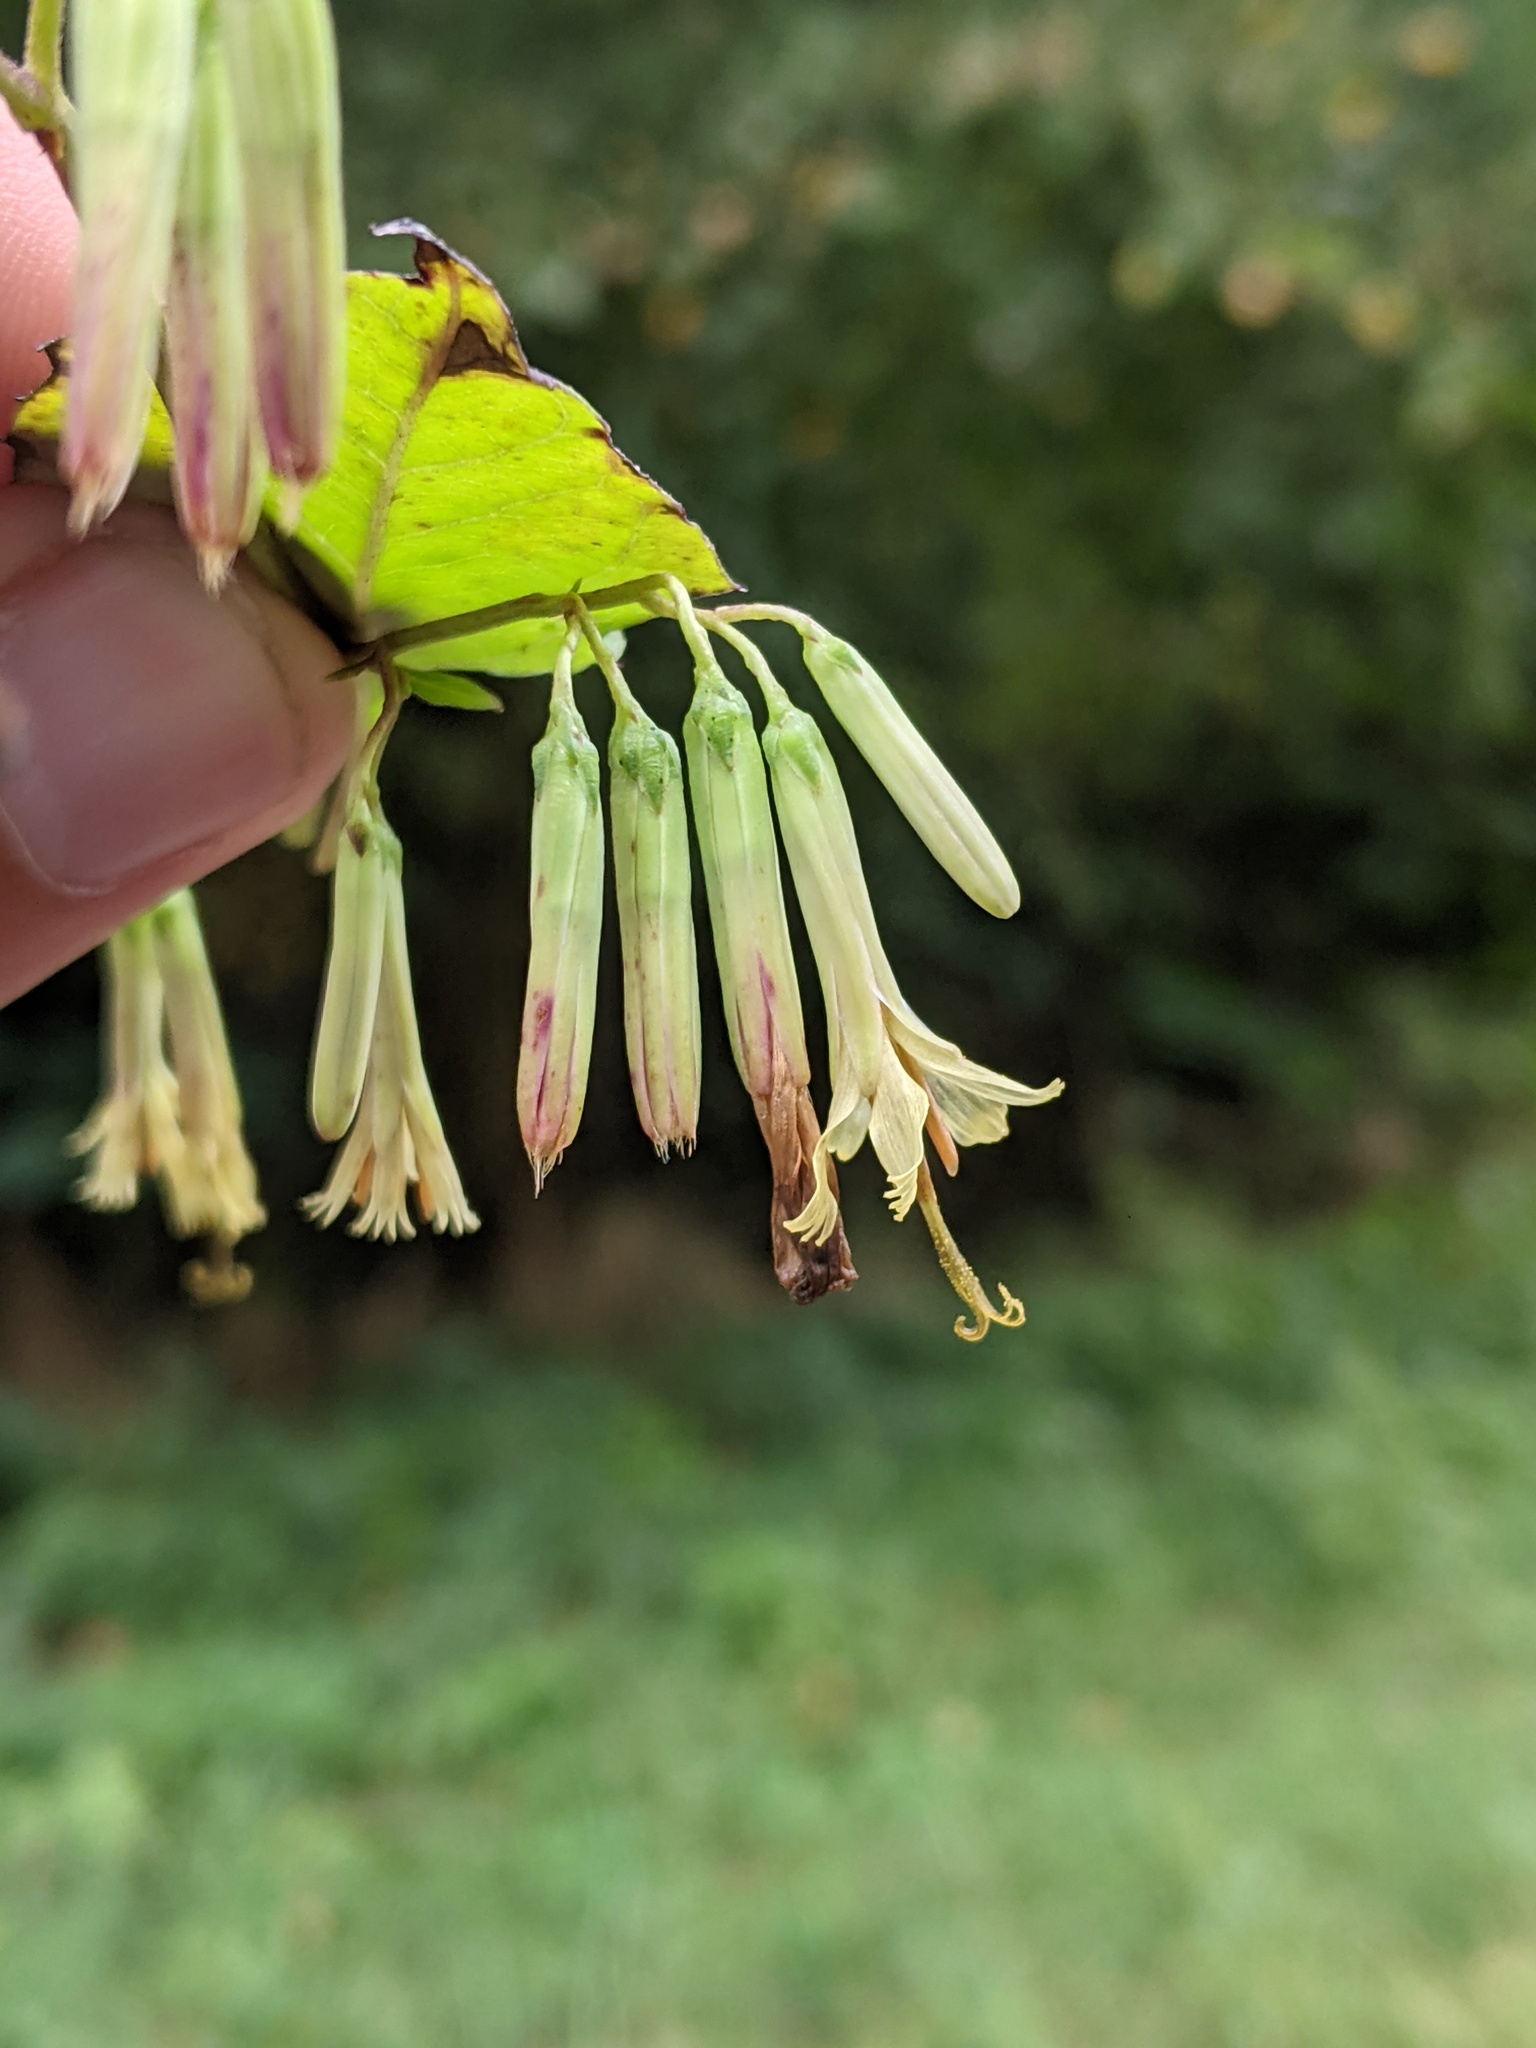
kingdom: Plantae
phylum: Tracheophyta
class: Magnoliopsida
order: Asterales
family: Asteraceae
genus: Nabalus
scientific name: Nabalus altissima
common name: Tall rattlesnakeroot
